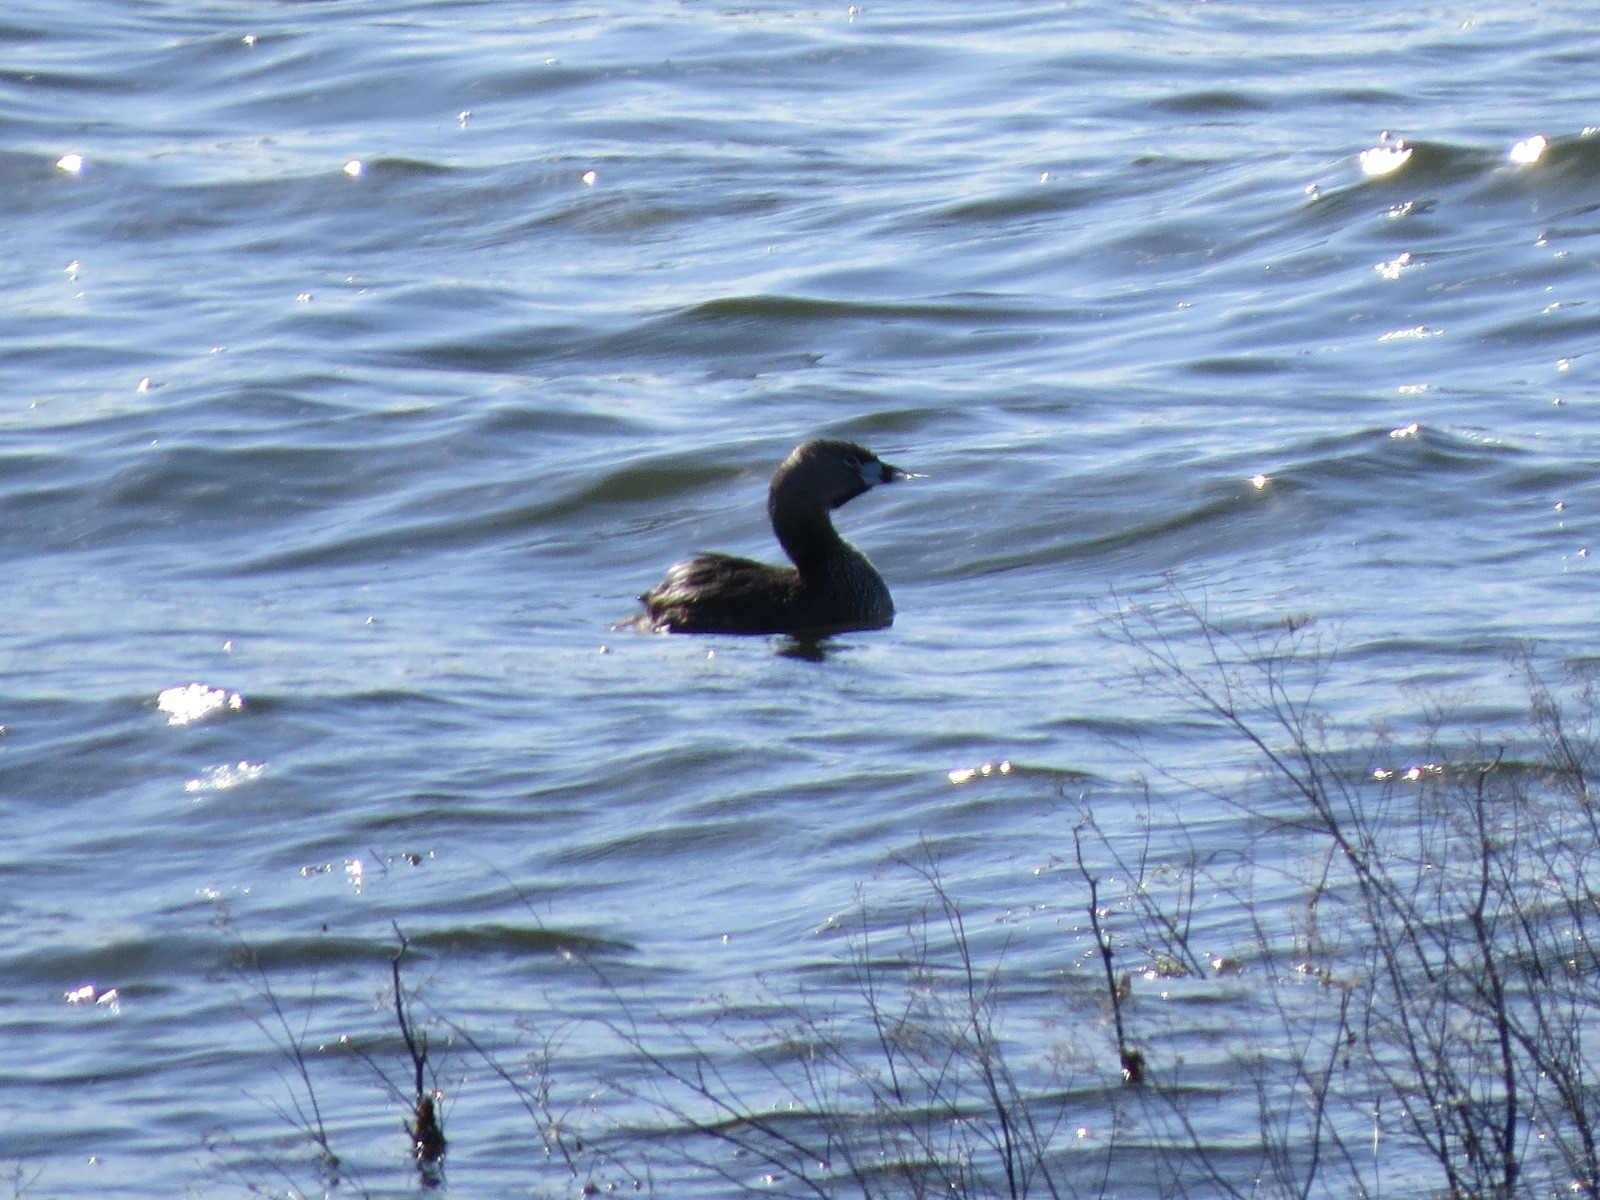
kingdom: Animalia
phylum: Chordata
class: Aves
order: Podicipediformes
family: Podicipedidae
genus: Podilymbus
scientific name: Podilymbus podiceps
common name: Pied-billed grebe
